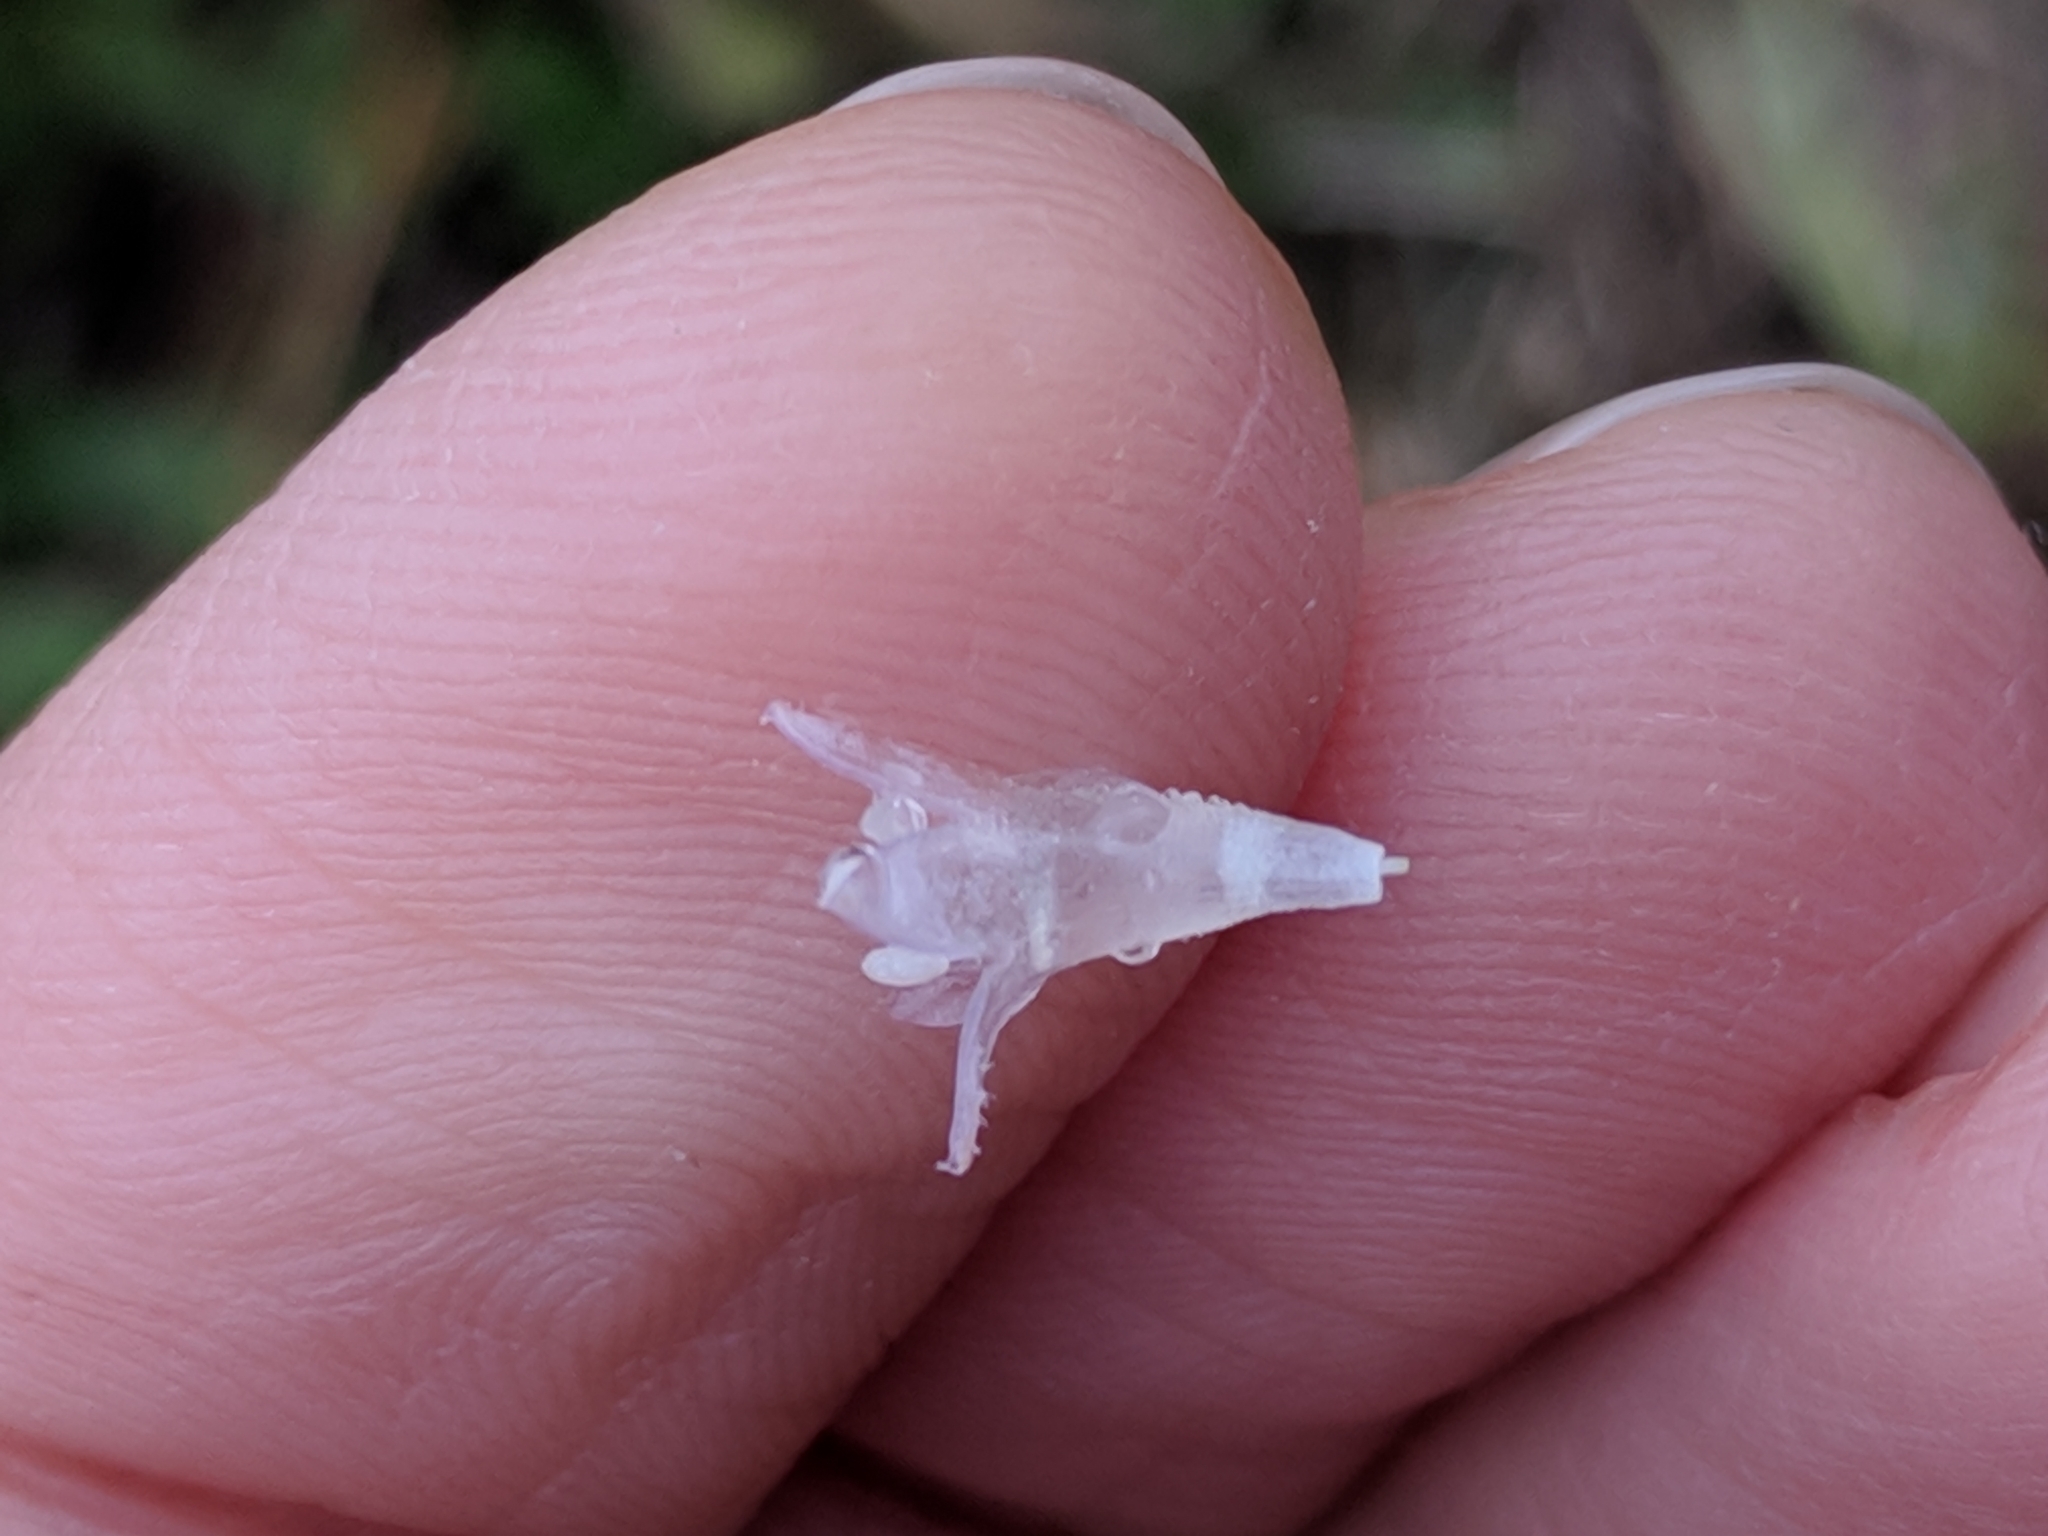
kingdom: Plantae
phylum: Tracheophyta
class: Magnoliopsida
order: Gentianales
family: Rubiaceae
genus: Richardia
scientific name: Richardia brasiliensis
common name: Tropical mexican clover
